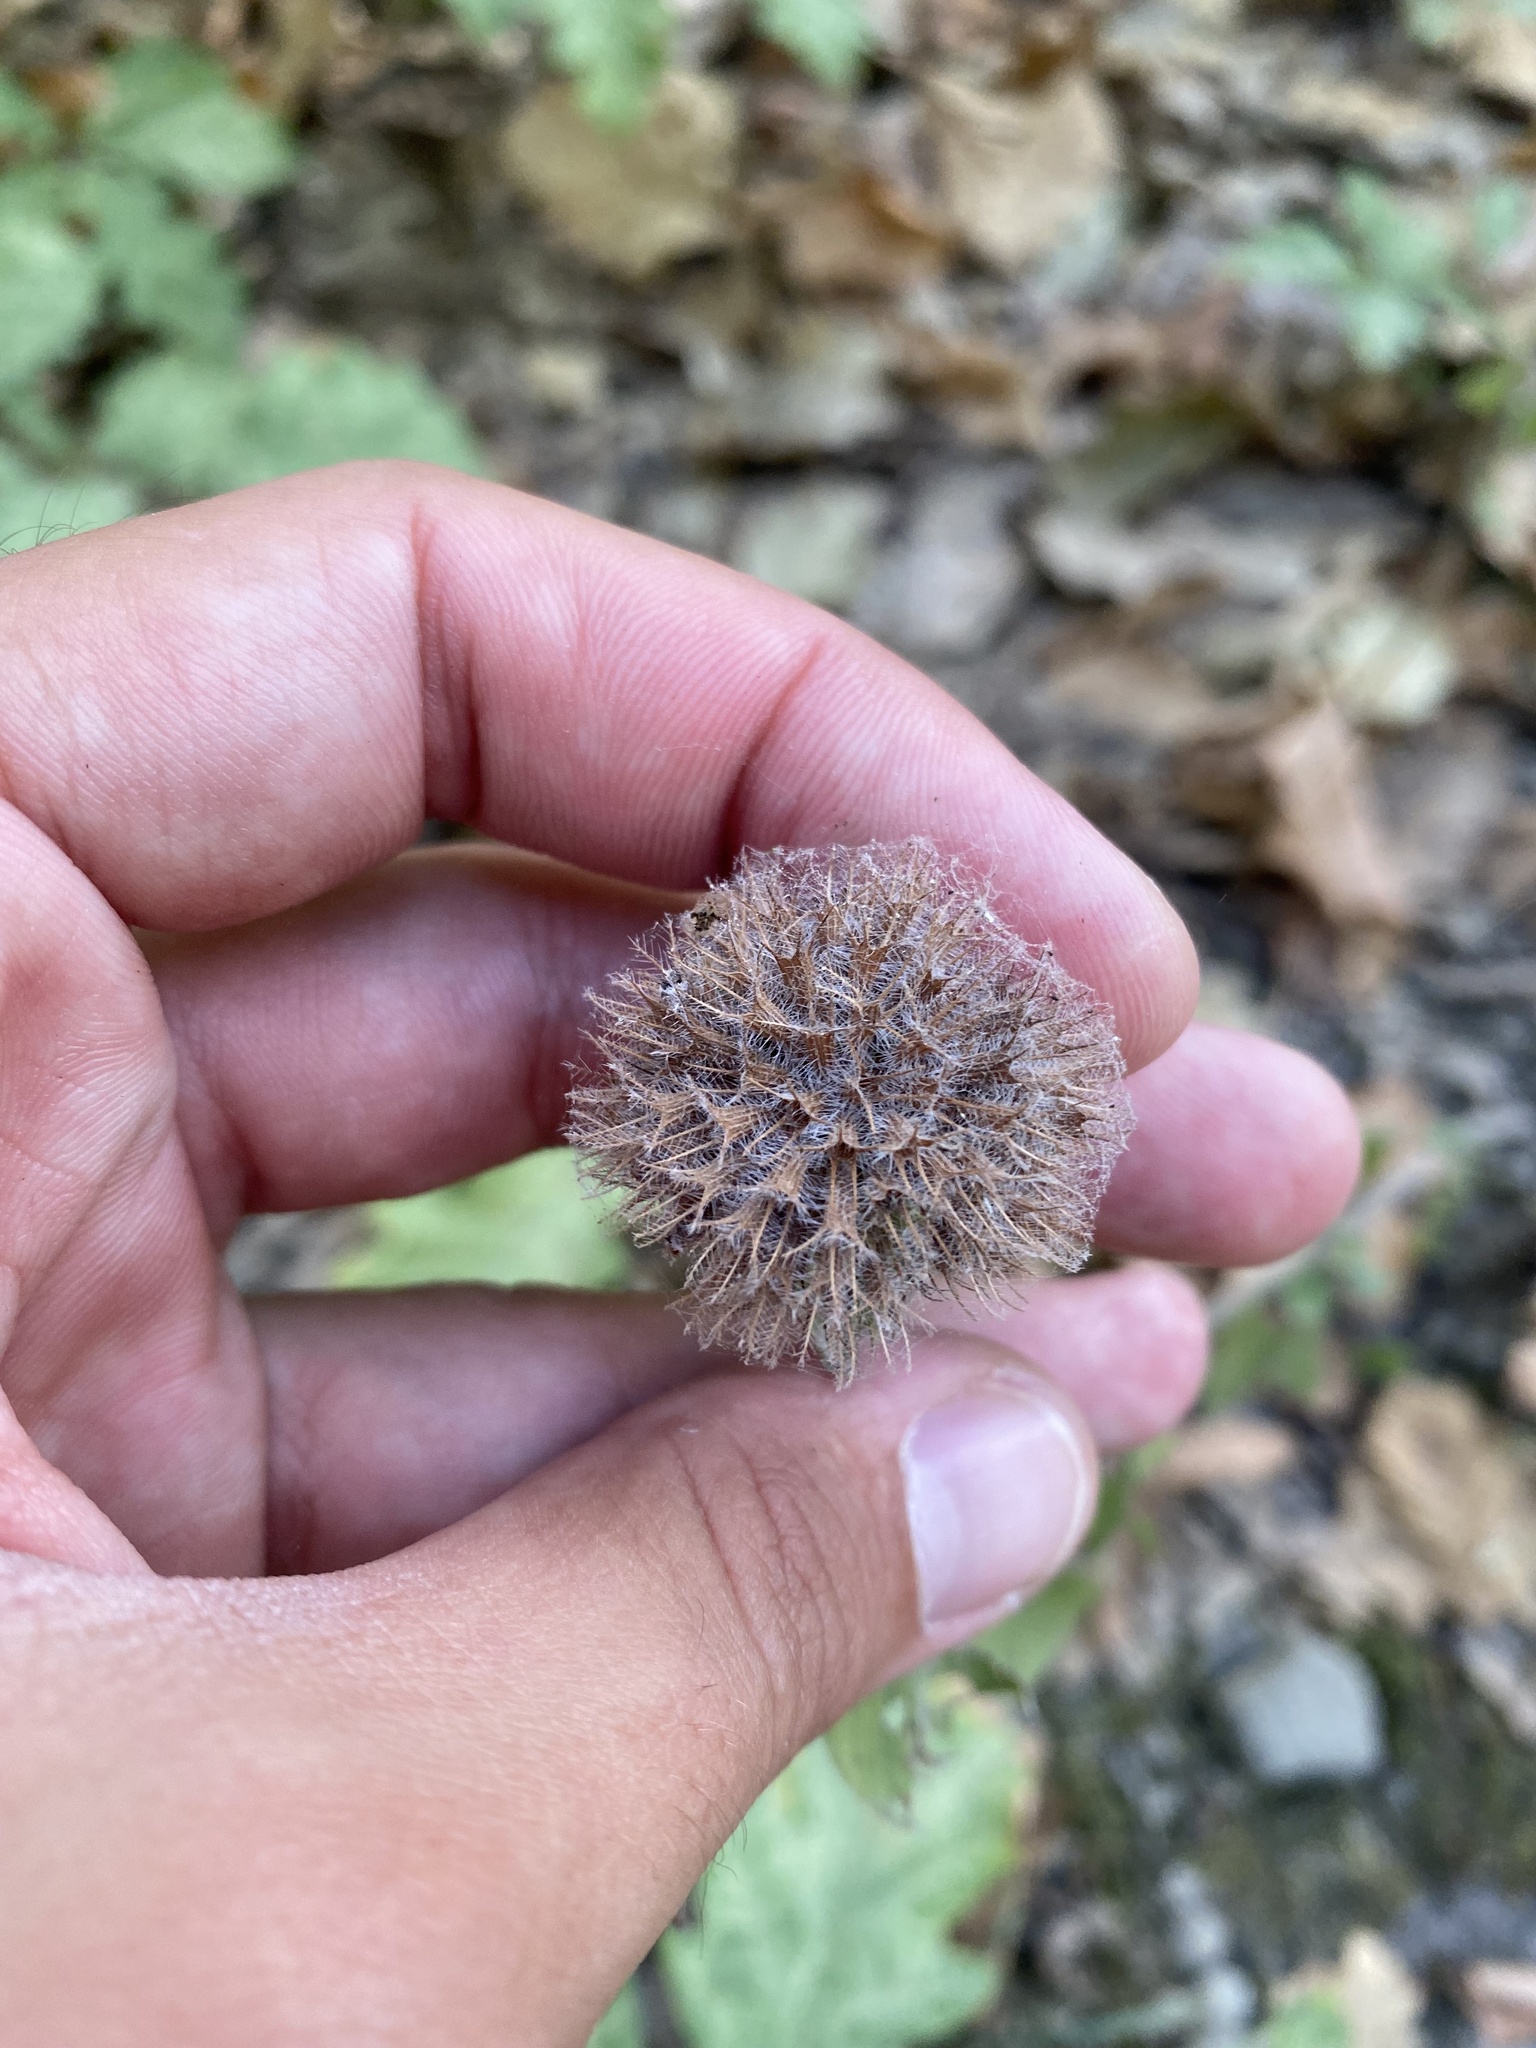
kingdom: Plantae
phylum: Tracheophyta
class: Magnoliopsida
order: Lamiales
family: Lamiaceae
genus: Clinopodium
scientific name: Clinopodium caucasicum
